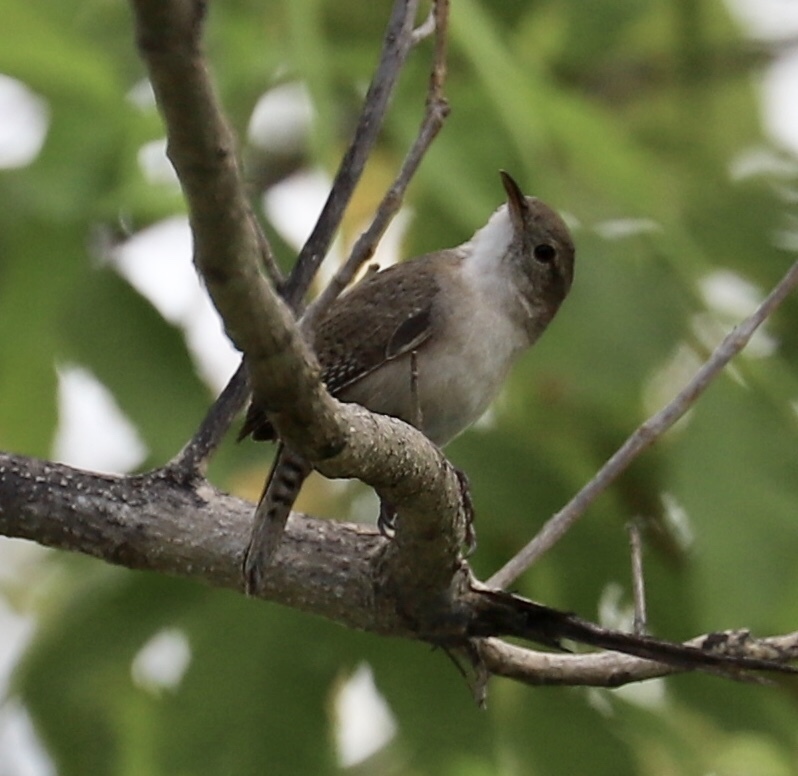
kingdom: Animalia
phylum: Chordata
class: Aves
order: Passeriformes
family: Troglodytidae
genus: Troglodytes
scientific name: Troglodytes aedon
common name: House wren
